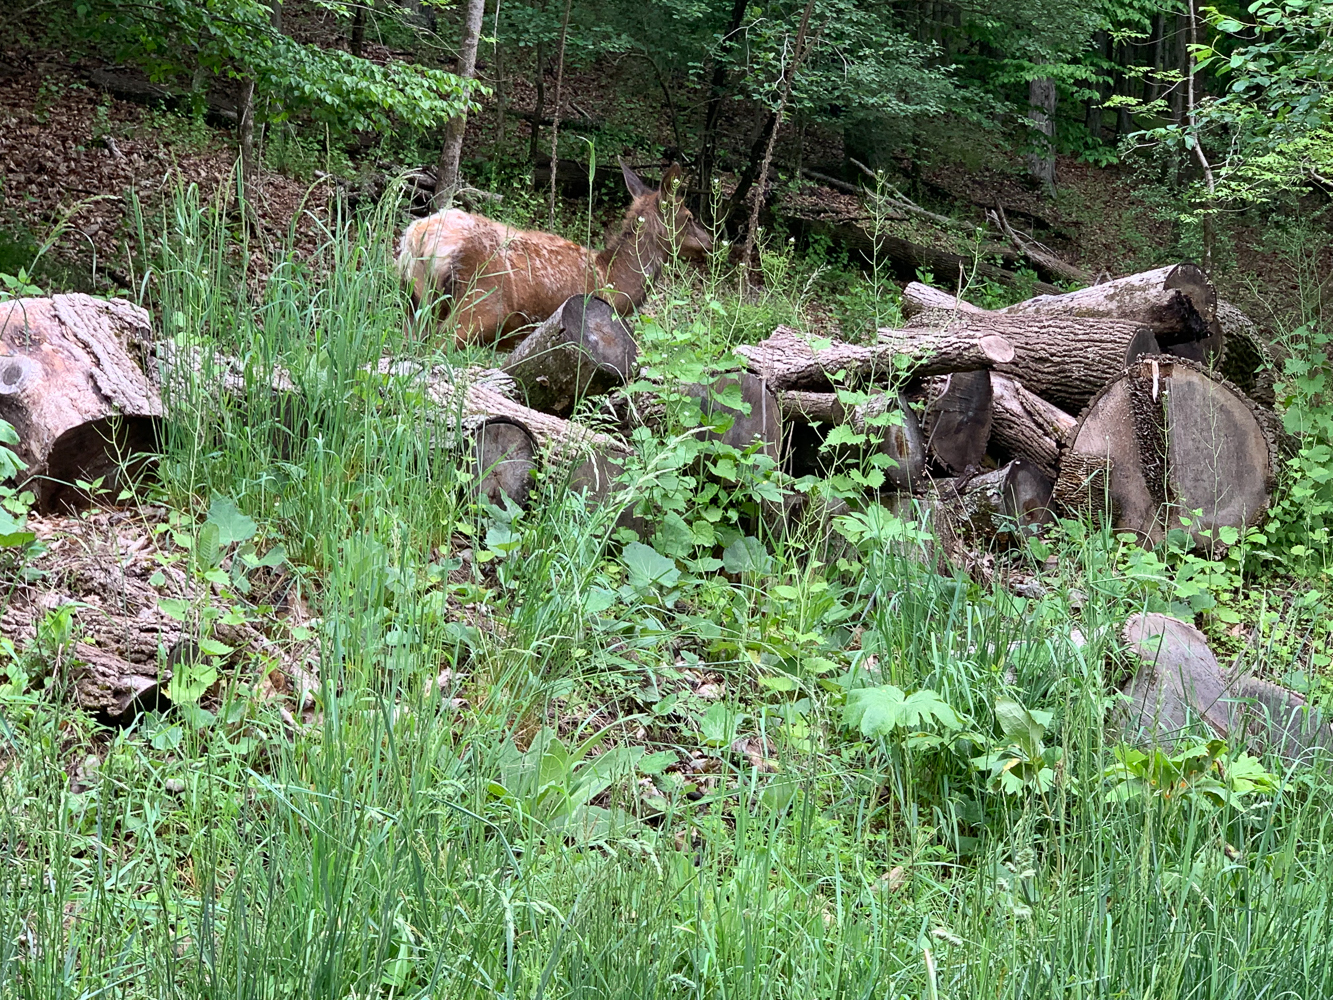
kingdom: Animalia
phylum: Chordata
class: Mammalia
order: Artiodactyla
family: Cervidae
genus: Cervus
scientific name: Cervus elaphus
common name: Red deer
